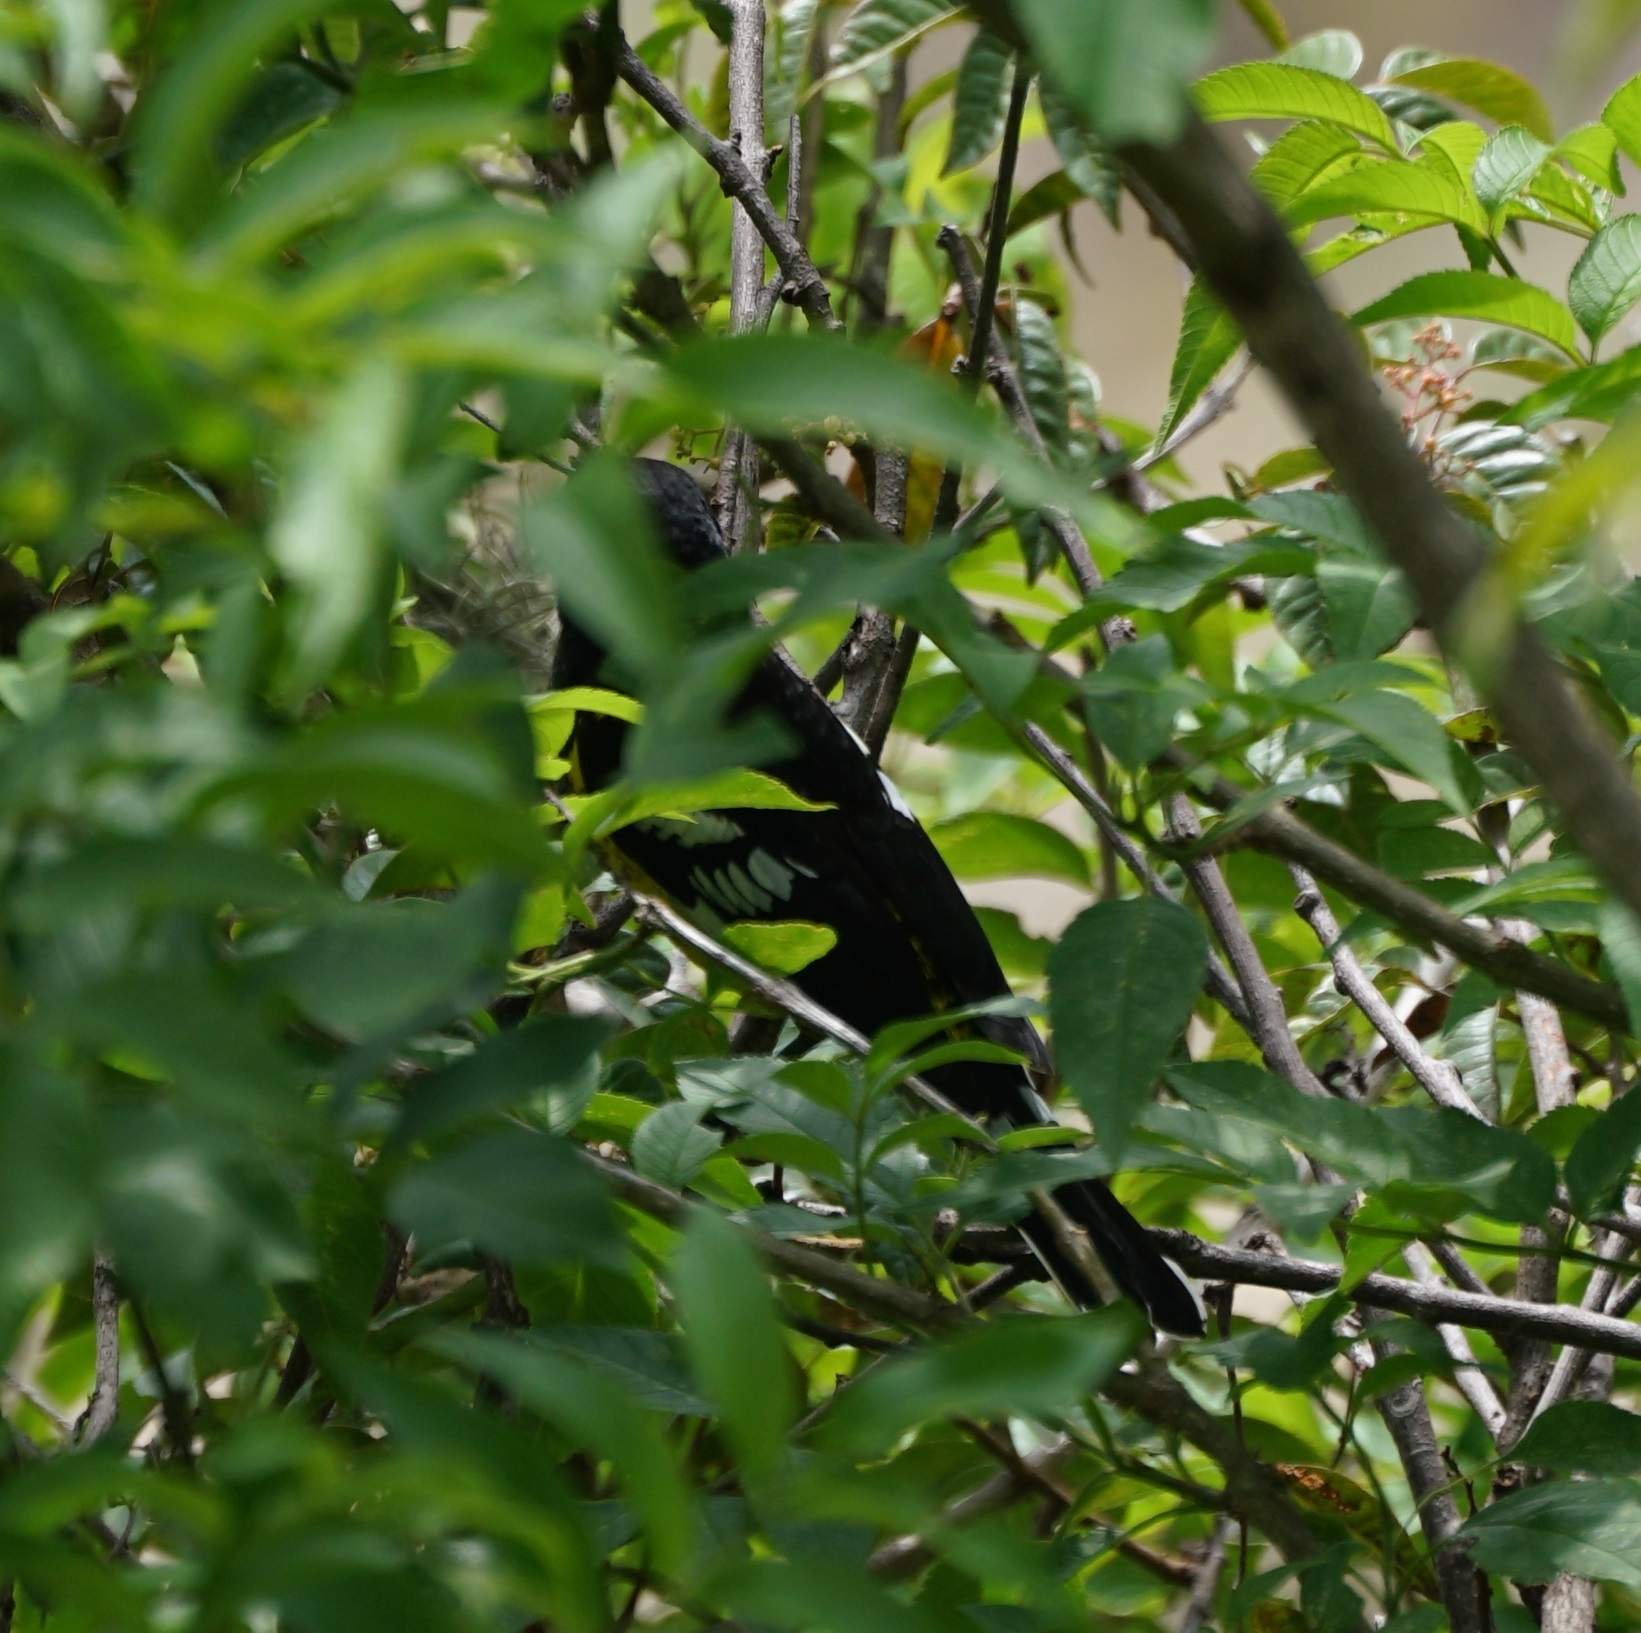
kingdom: Animalia
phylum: Chordata
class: Aves
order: Passeriformes
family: Cardinalidae
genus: Pheucticus
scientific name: Pheucticus aureoventris
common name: Black-backed grosbeak
